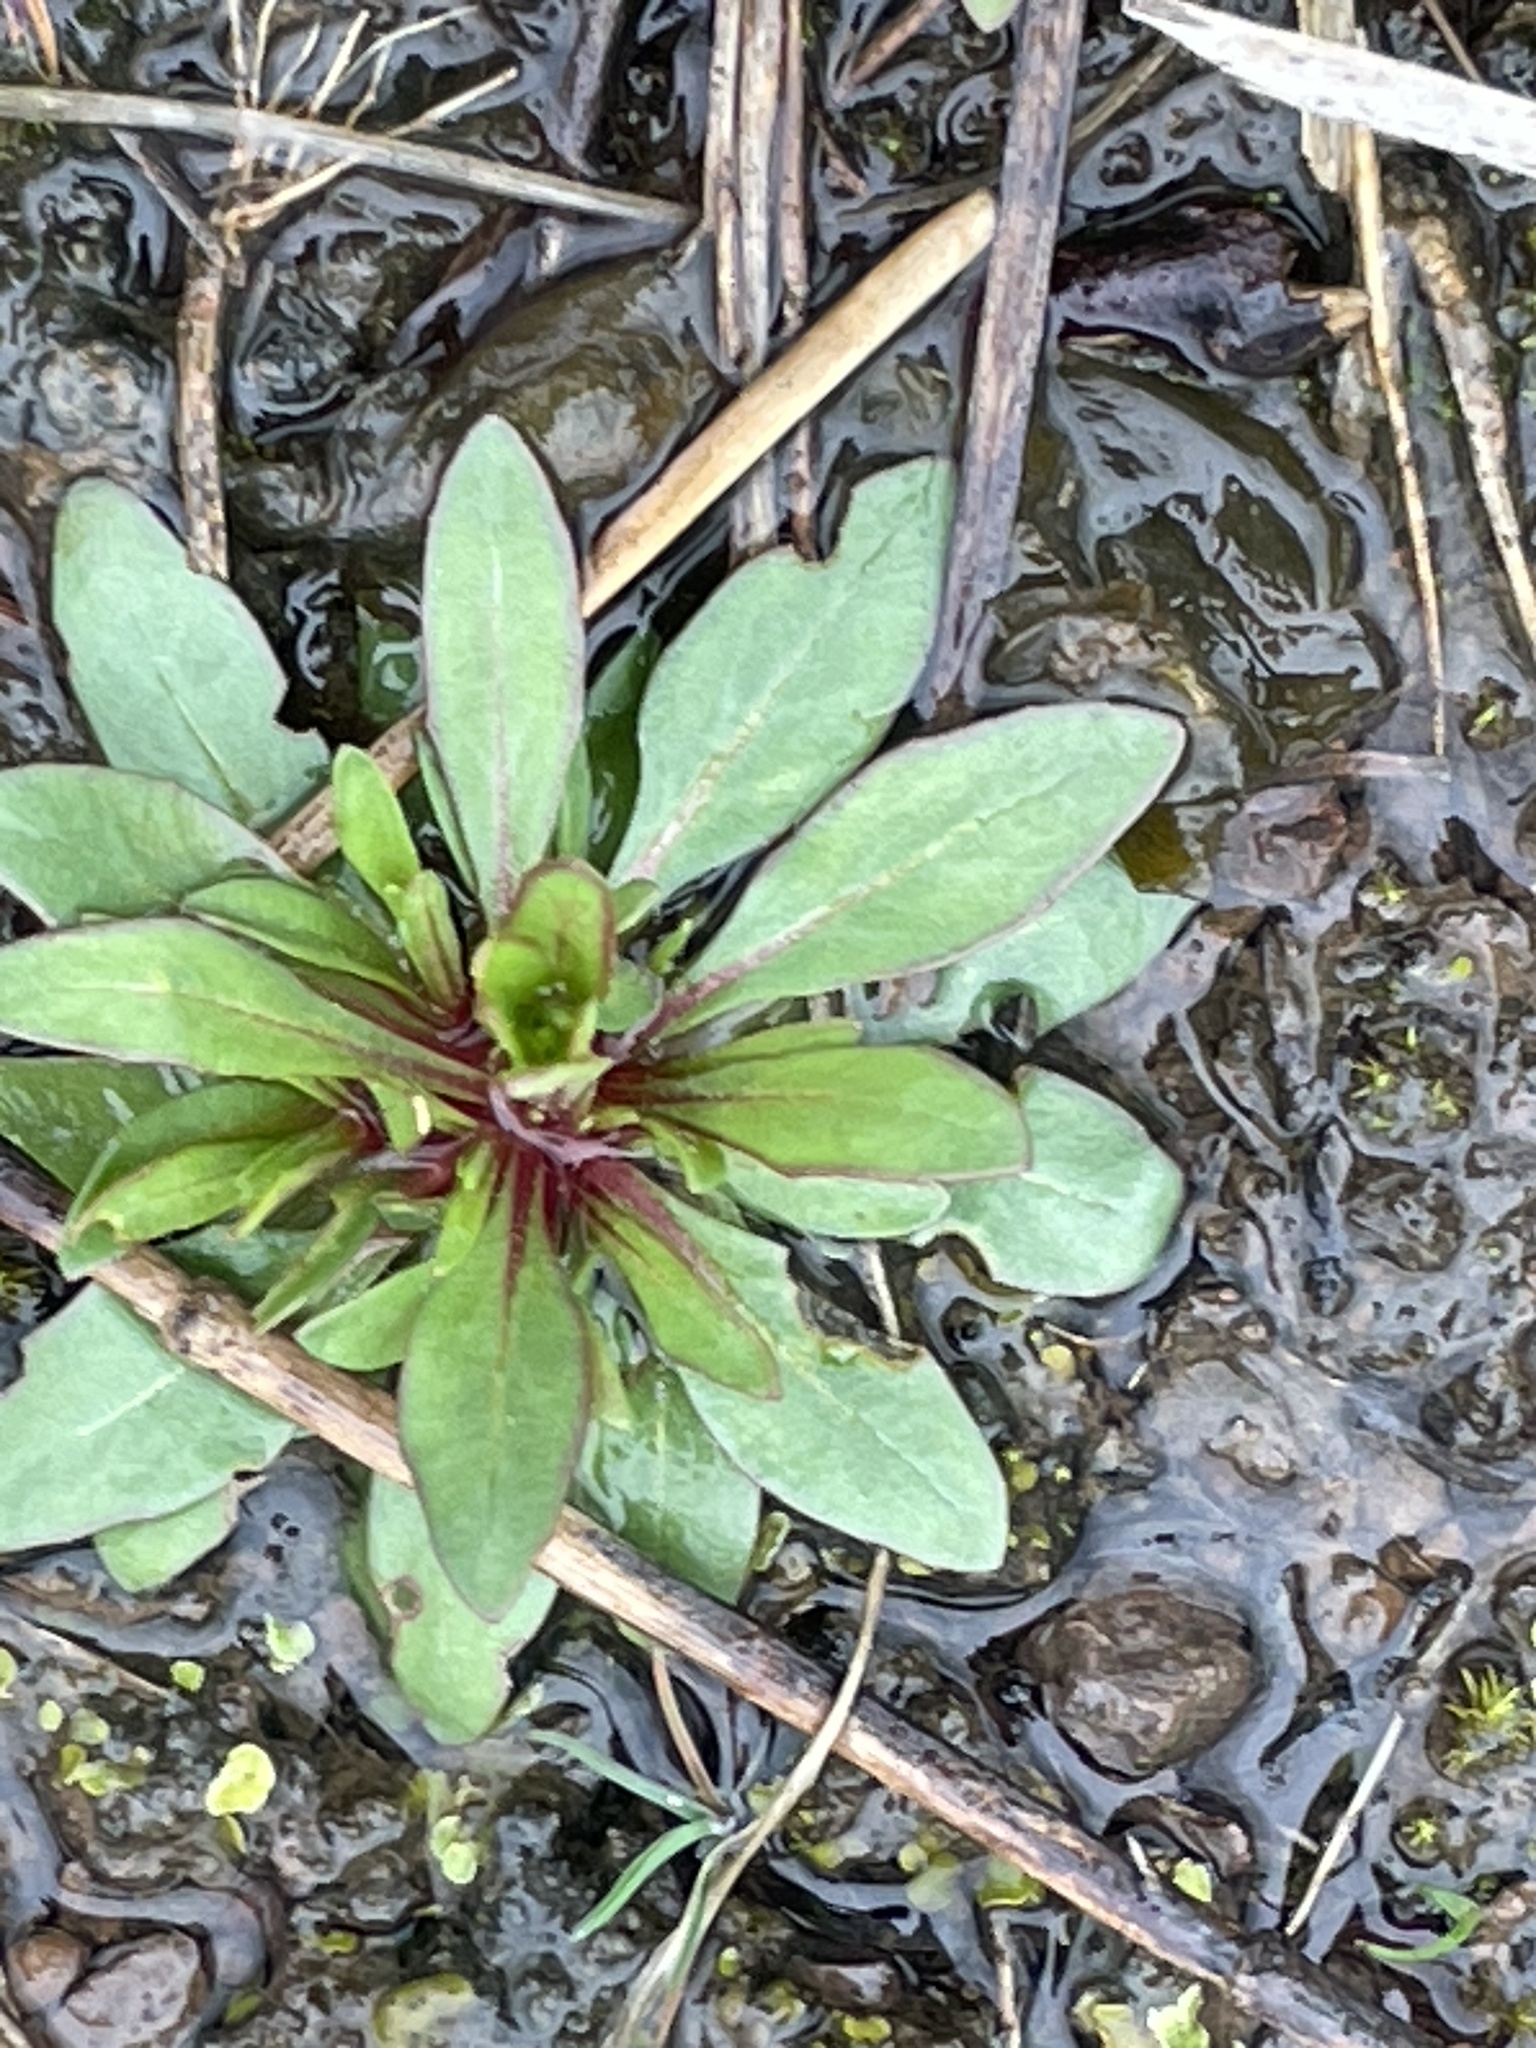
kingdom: Plantae
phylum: Tracheophyta
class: Magnoliopsida
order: Myrtales
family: Onagraceae
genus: Oenothera
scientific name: Oenothera linifolia
